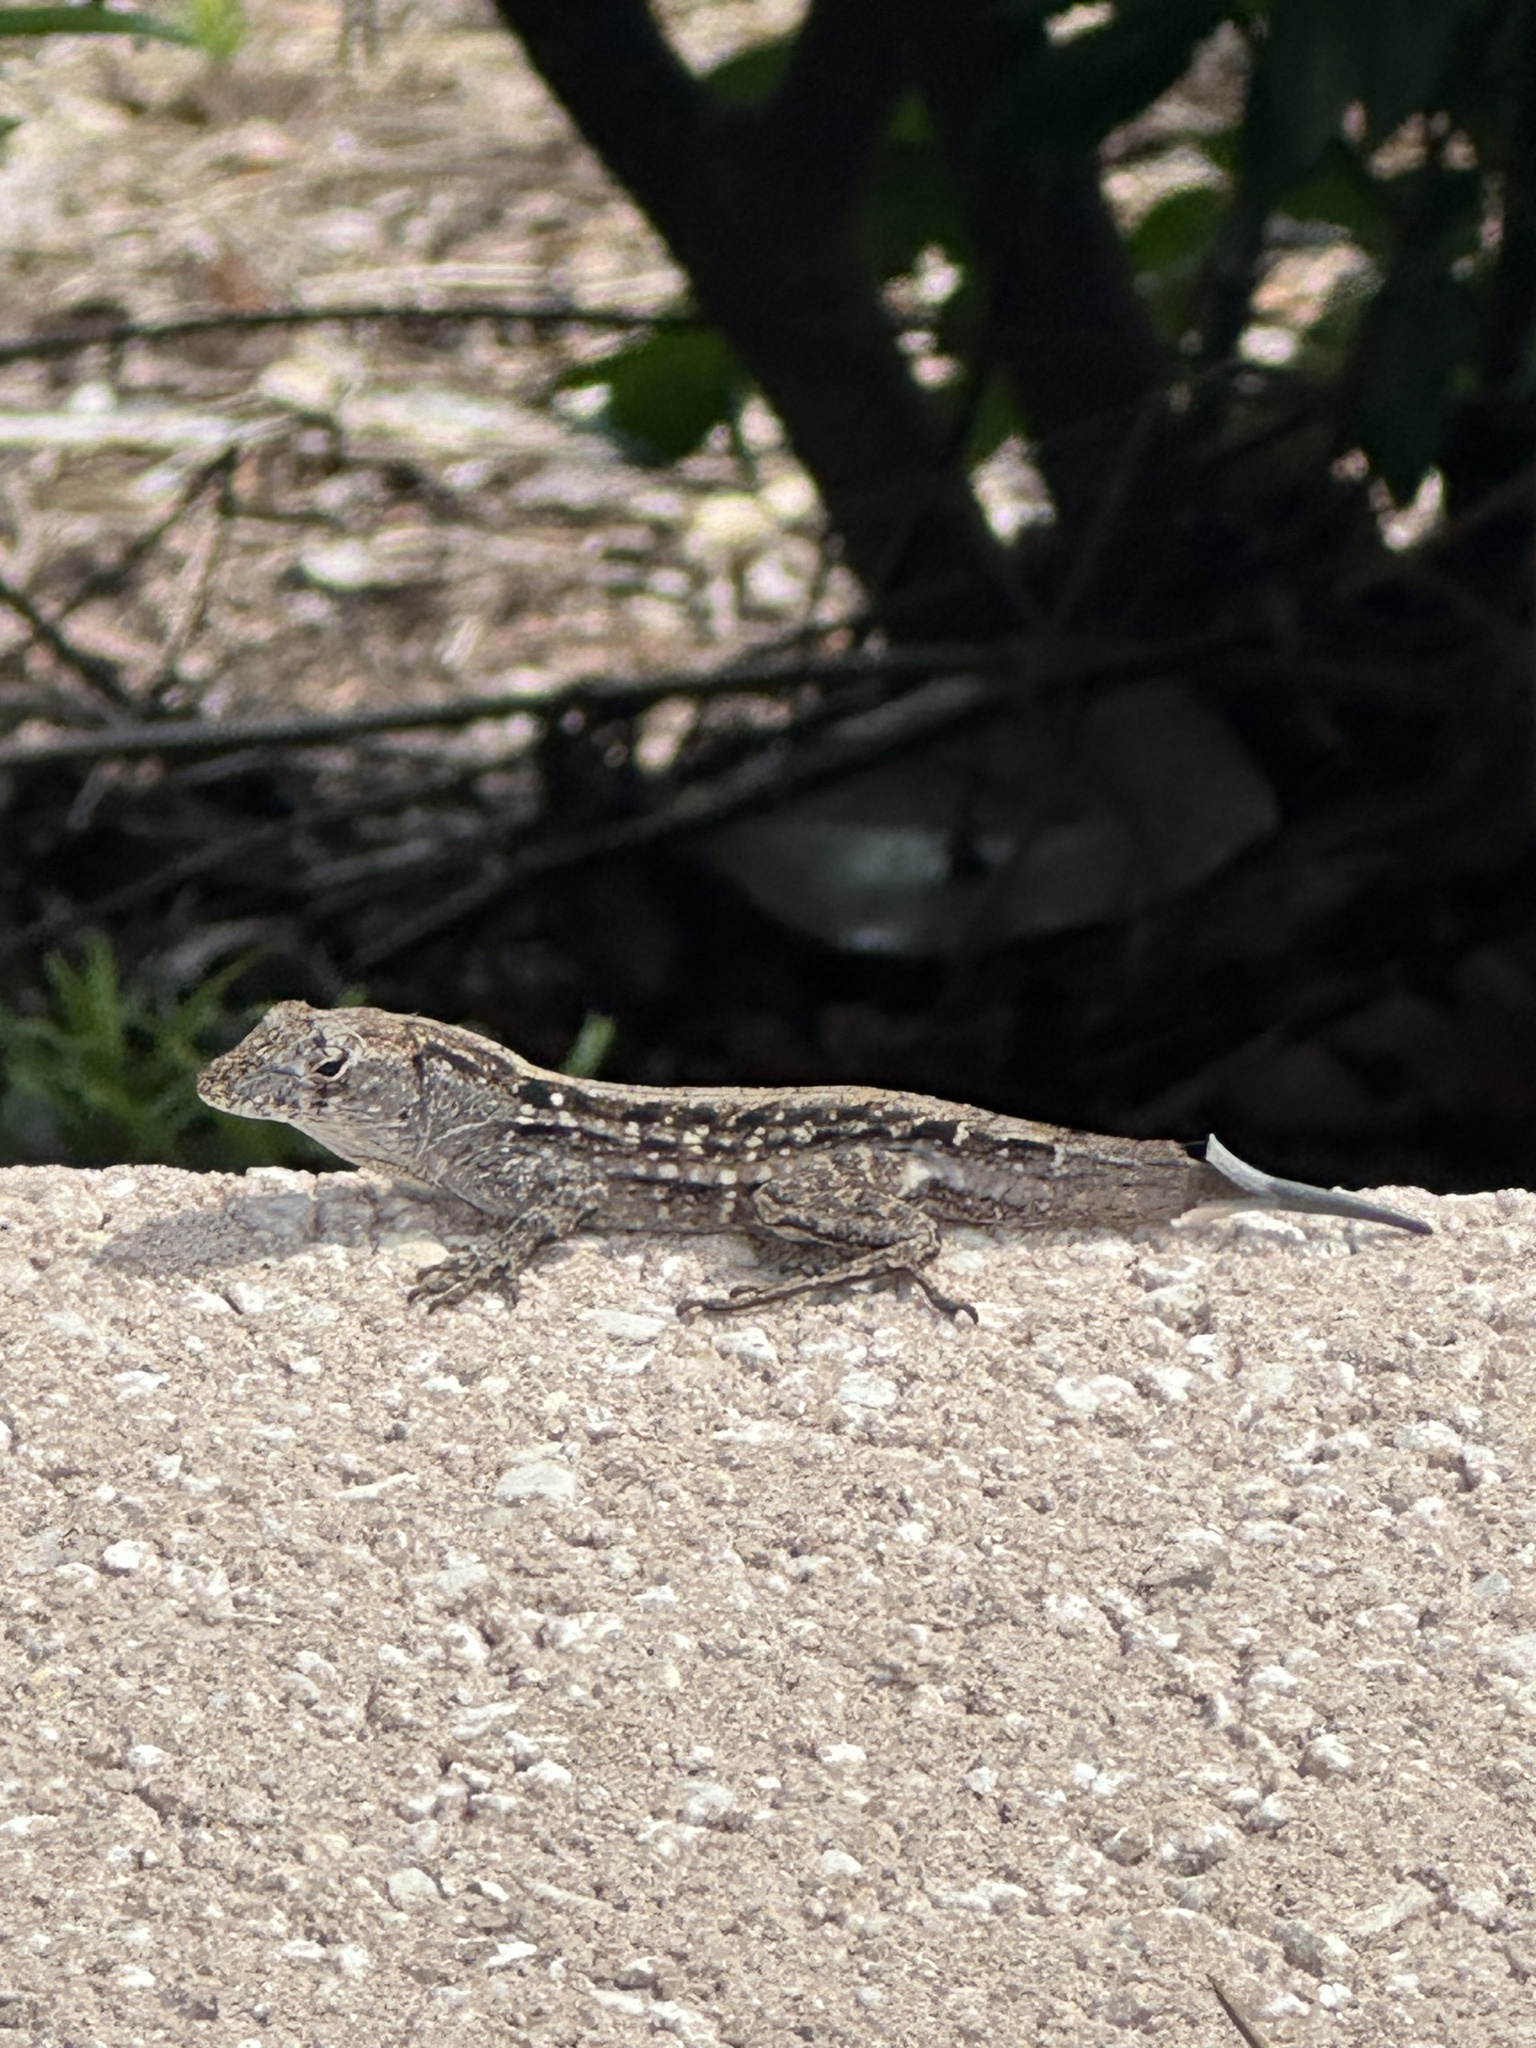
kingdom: Animalia
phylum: Chordata
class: Squamata
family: Dactyloidae
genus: Anolis
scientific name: Anolis sagrei
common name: Brown anole
